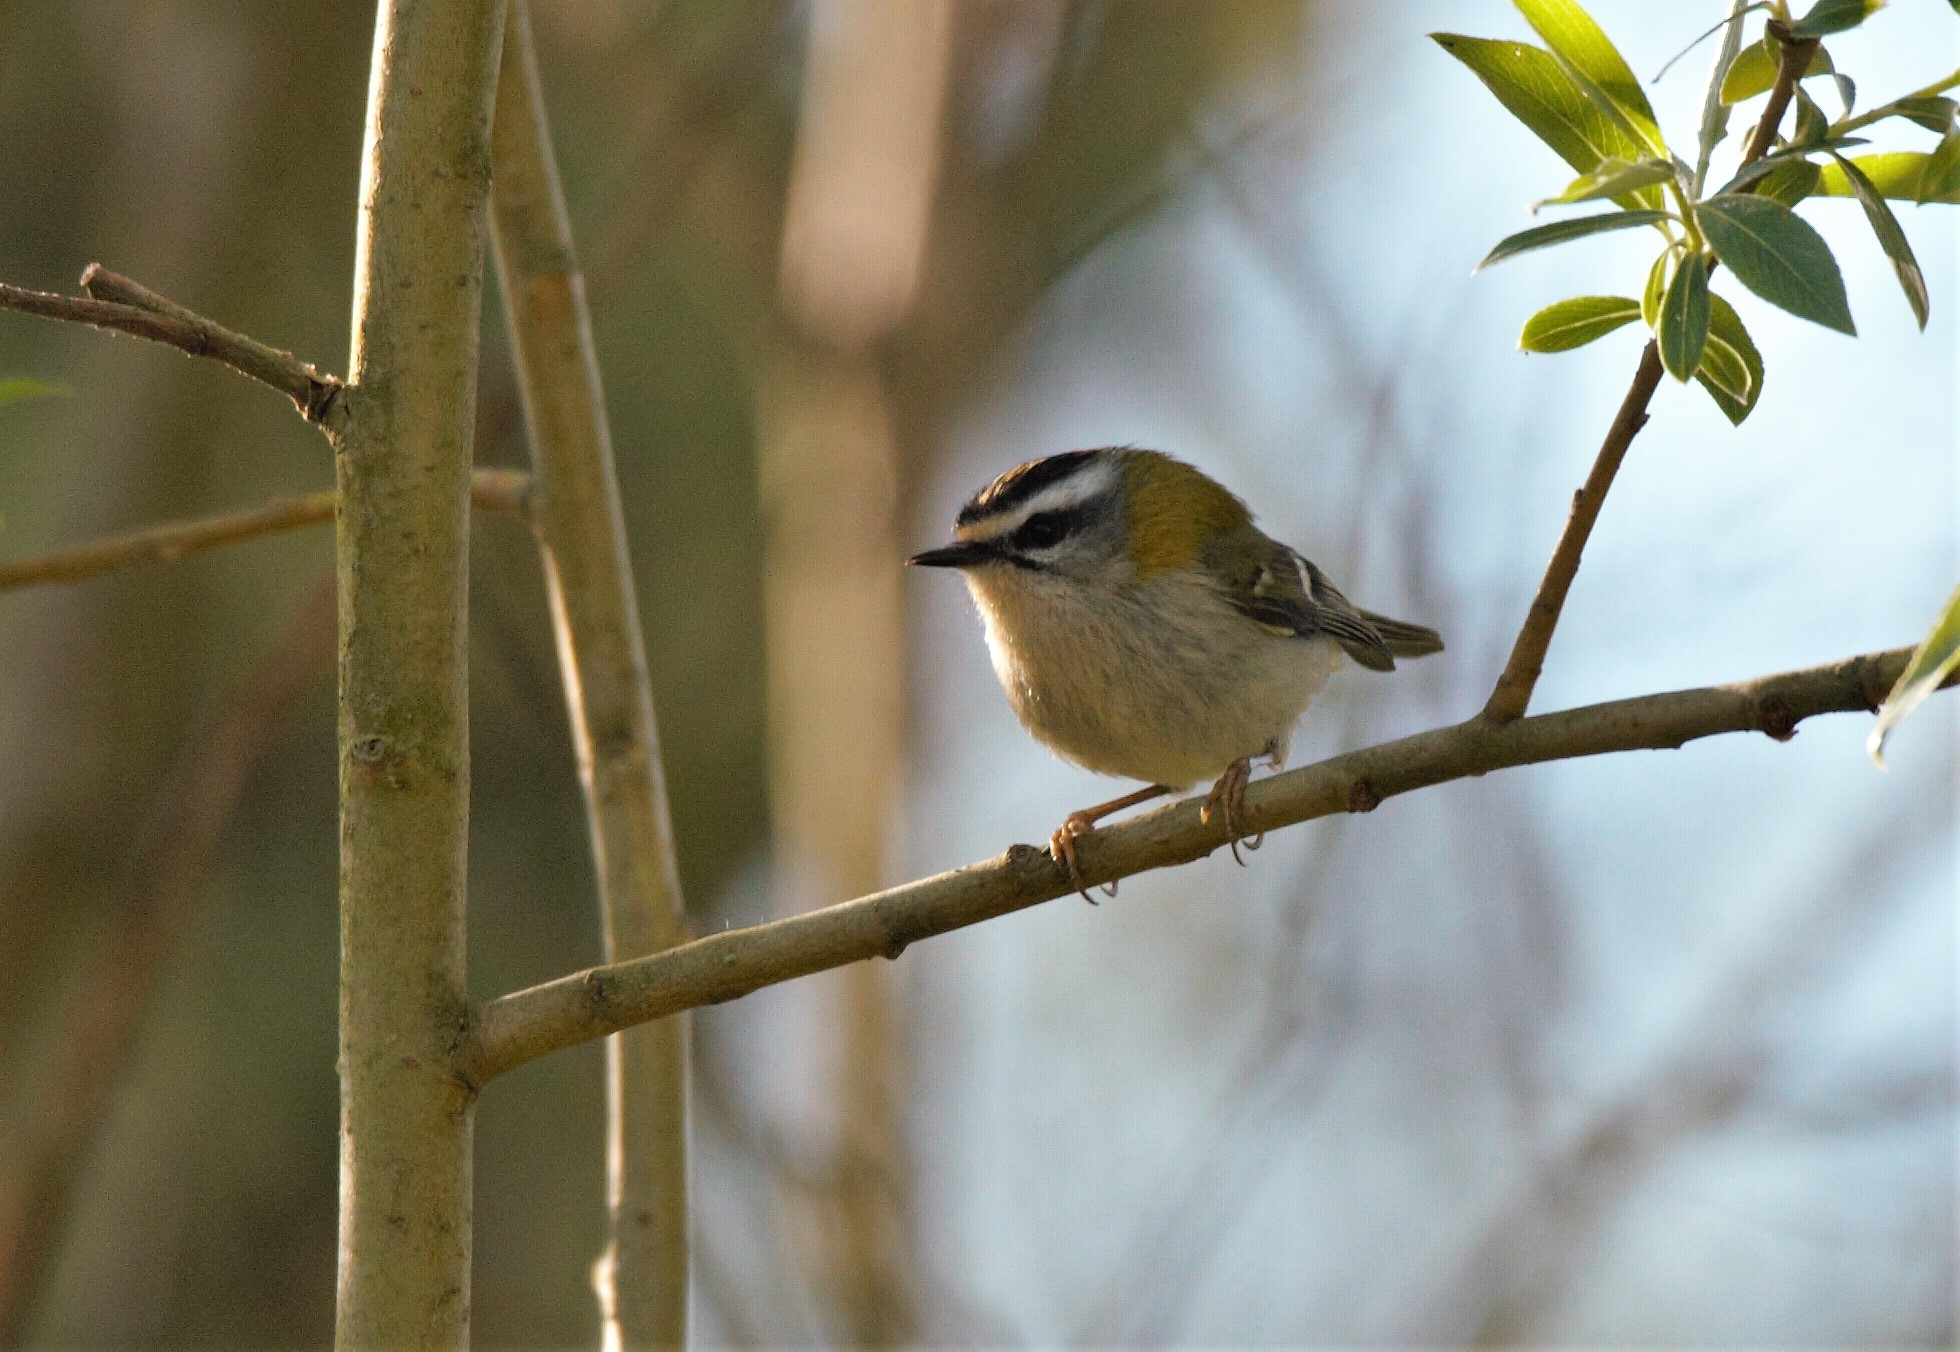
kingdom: Animalia
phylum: Chordata
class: Aves
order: Passeriformes
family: Regulidae
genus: Regulus
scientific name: Regulus ignicapilla
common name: Firecrest
